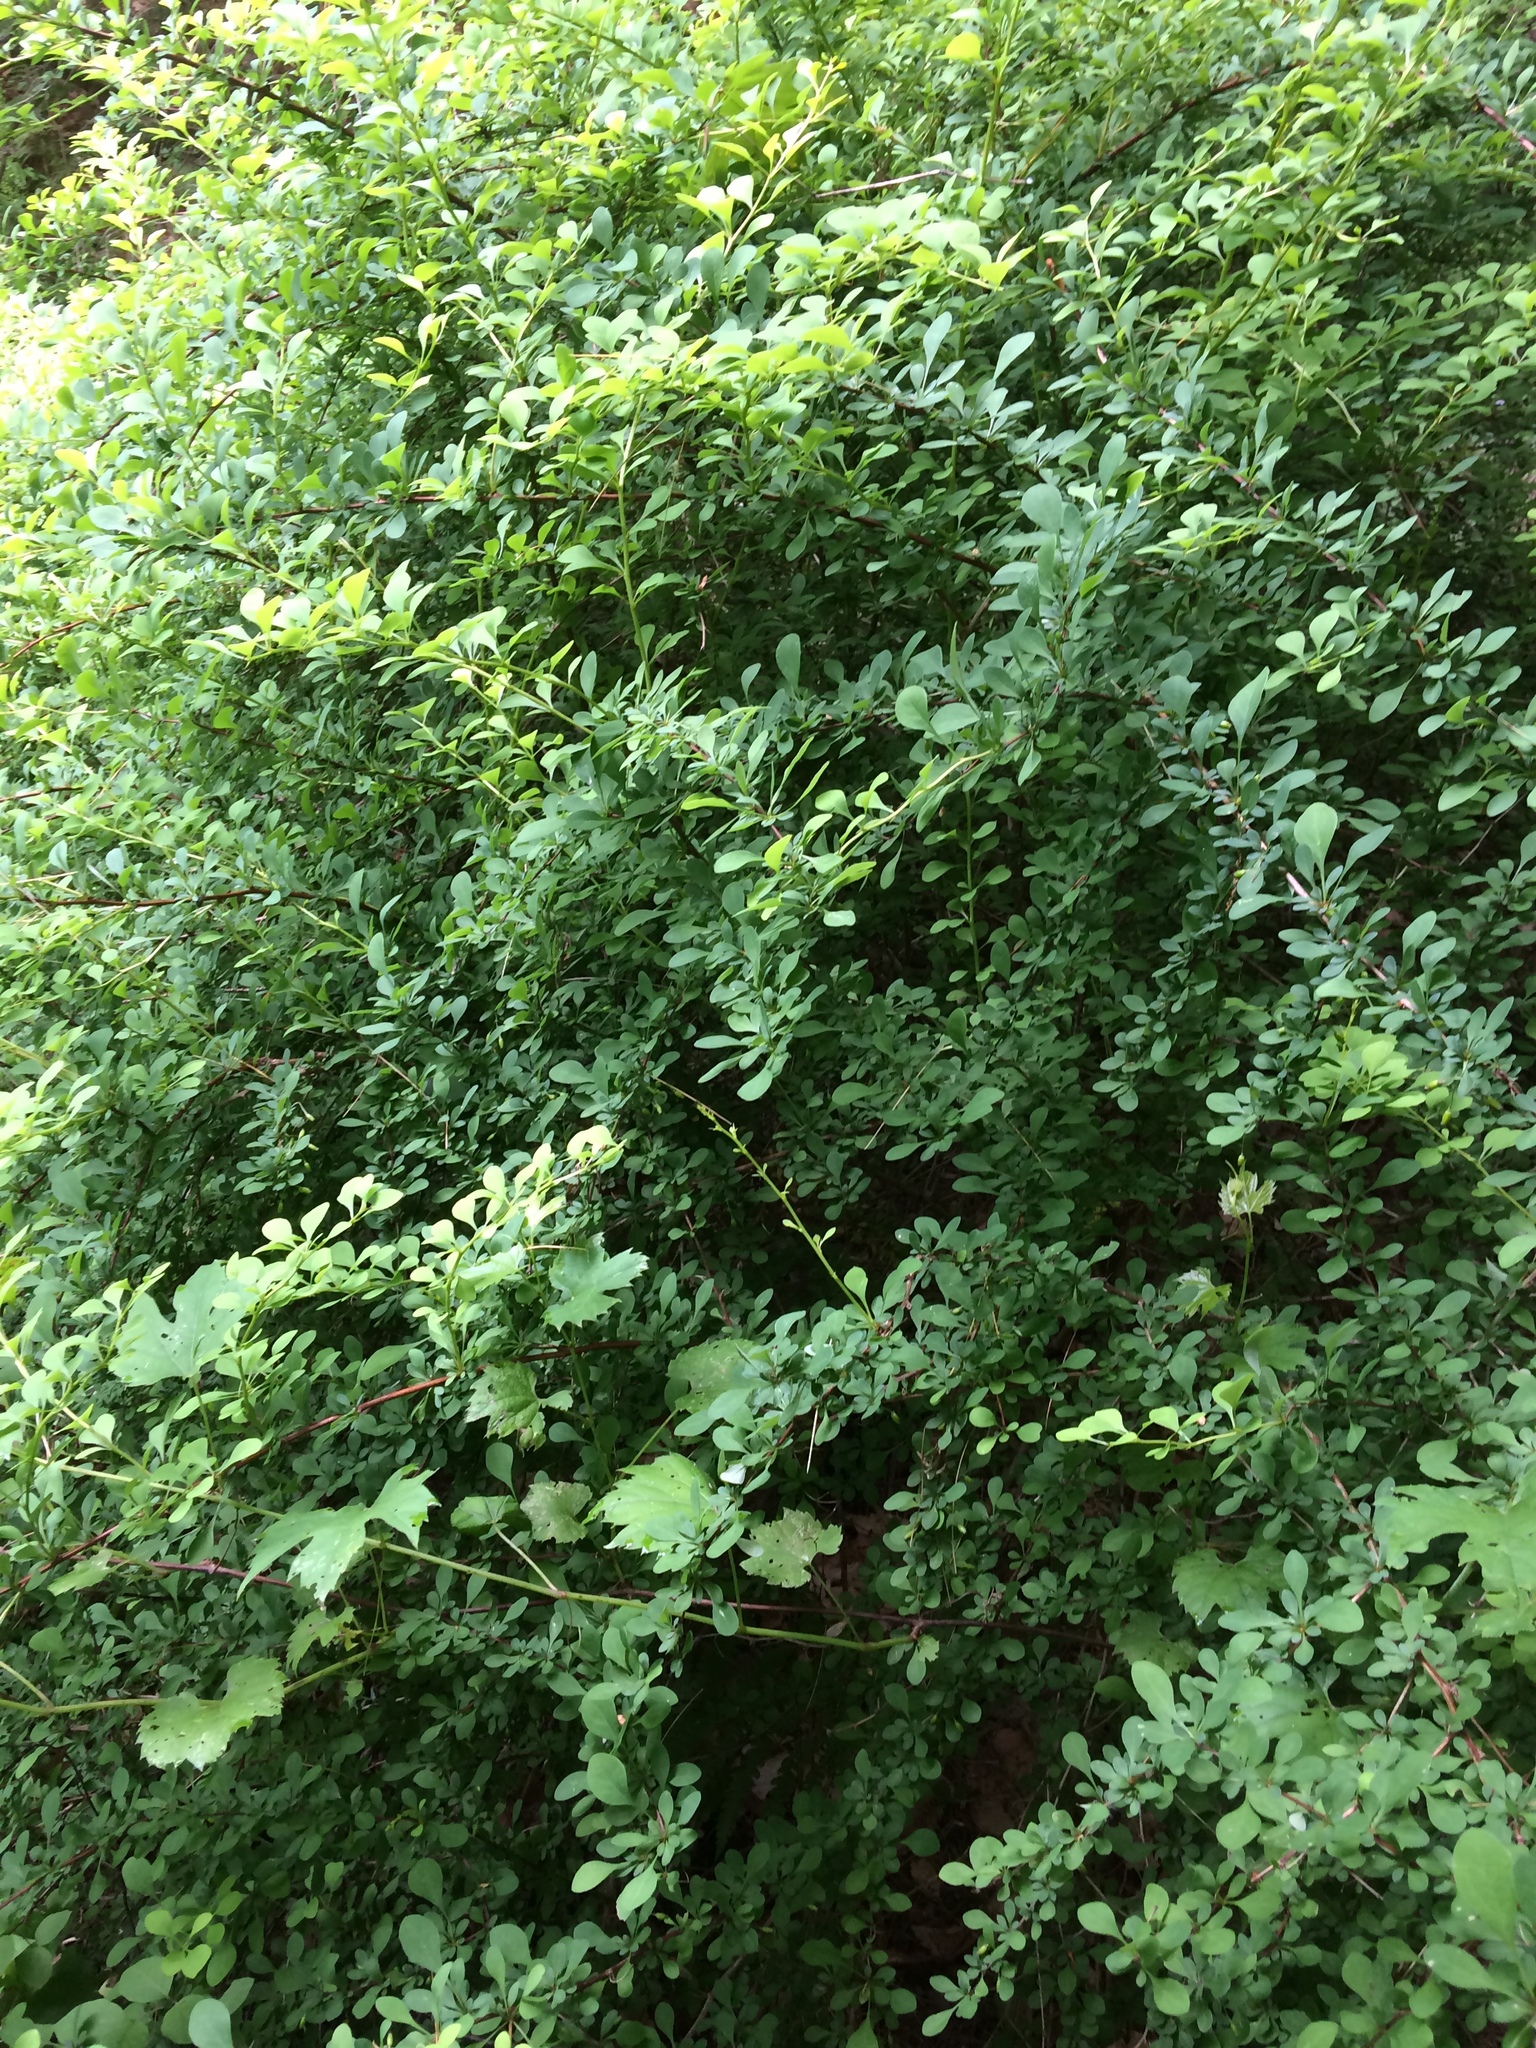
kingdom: Plantae
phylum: Tracheophyta
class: Magnoliopsida
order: Ranunculales
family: Berberidaceae
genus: Berberis
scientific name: Berberis thunbergii
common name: Japanese barberry
